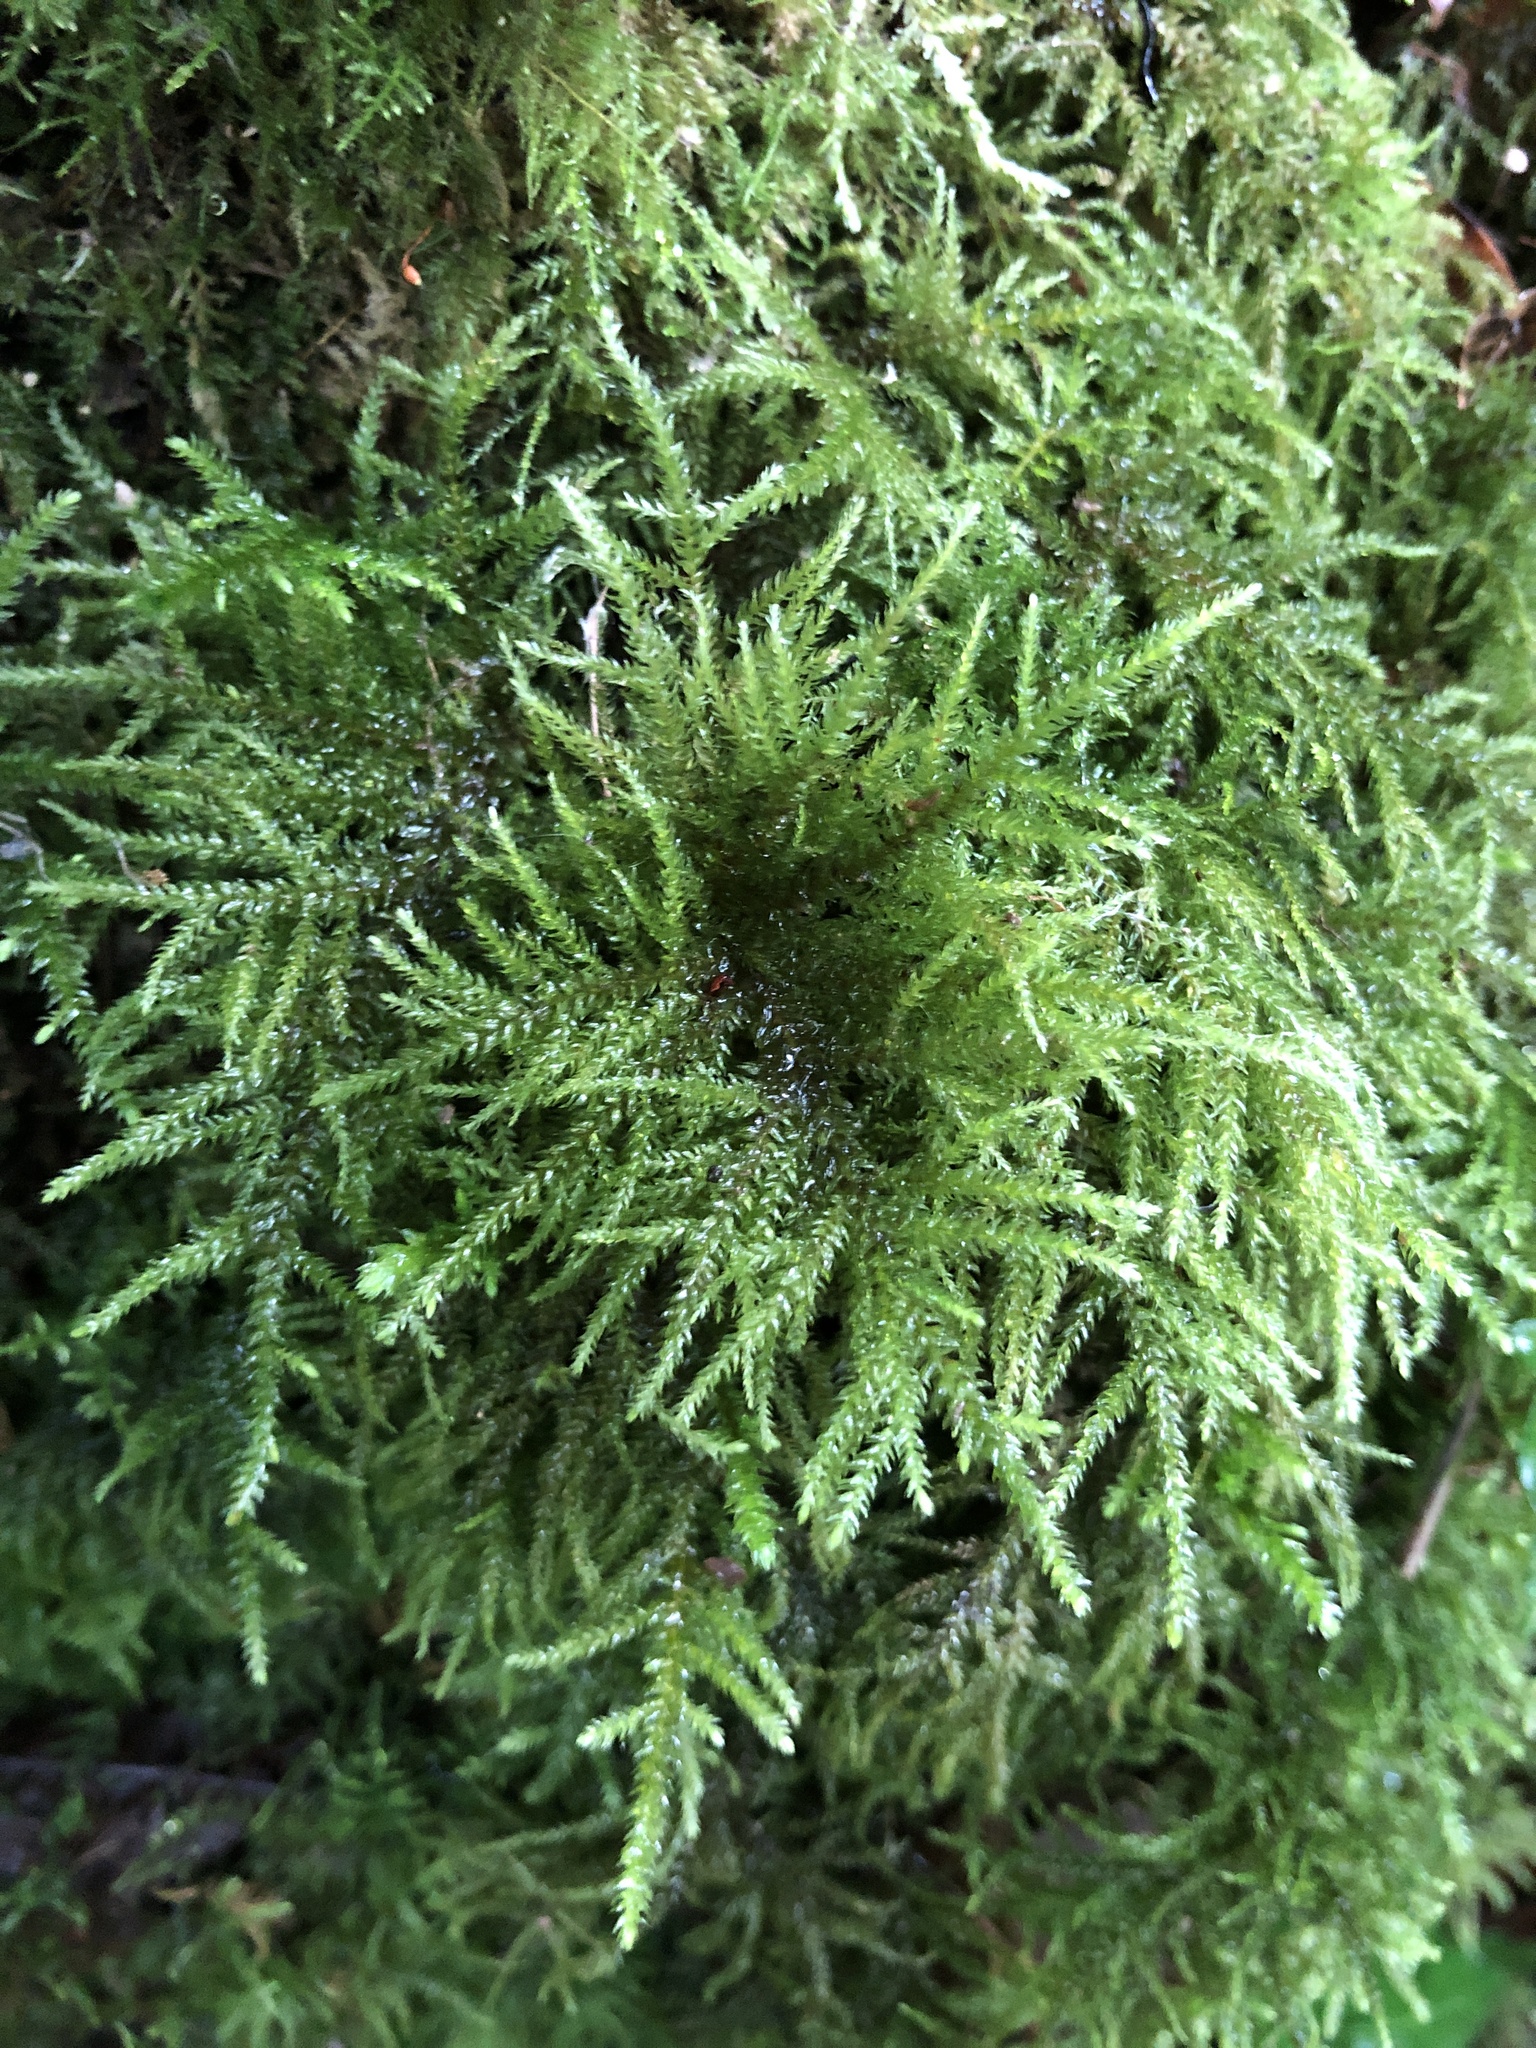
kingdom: Plantae
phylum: Bryophyta
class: Bryopsida
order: Hypnales
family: Neckeraceae
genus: Thamnobryum
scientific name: Thamnobryum alopecurum
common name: Fox-tail feather-moss
